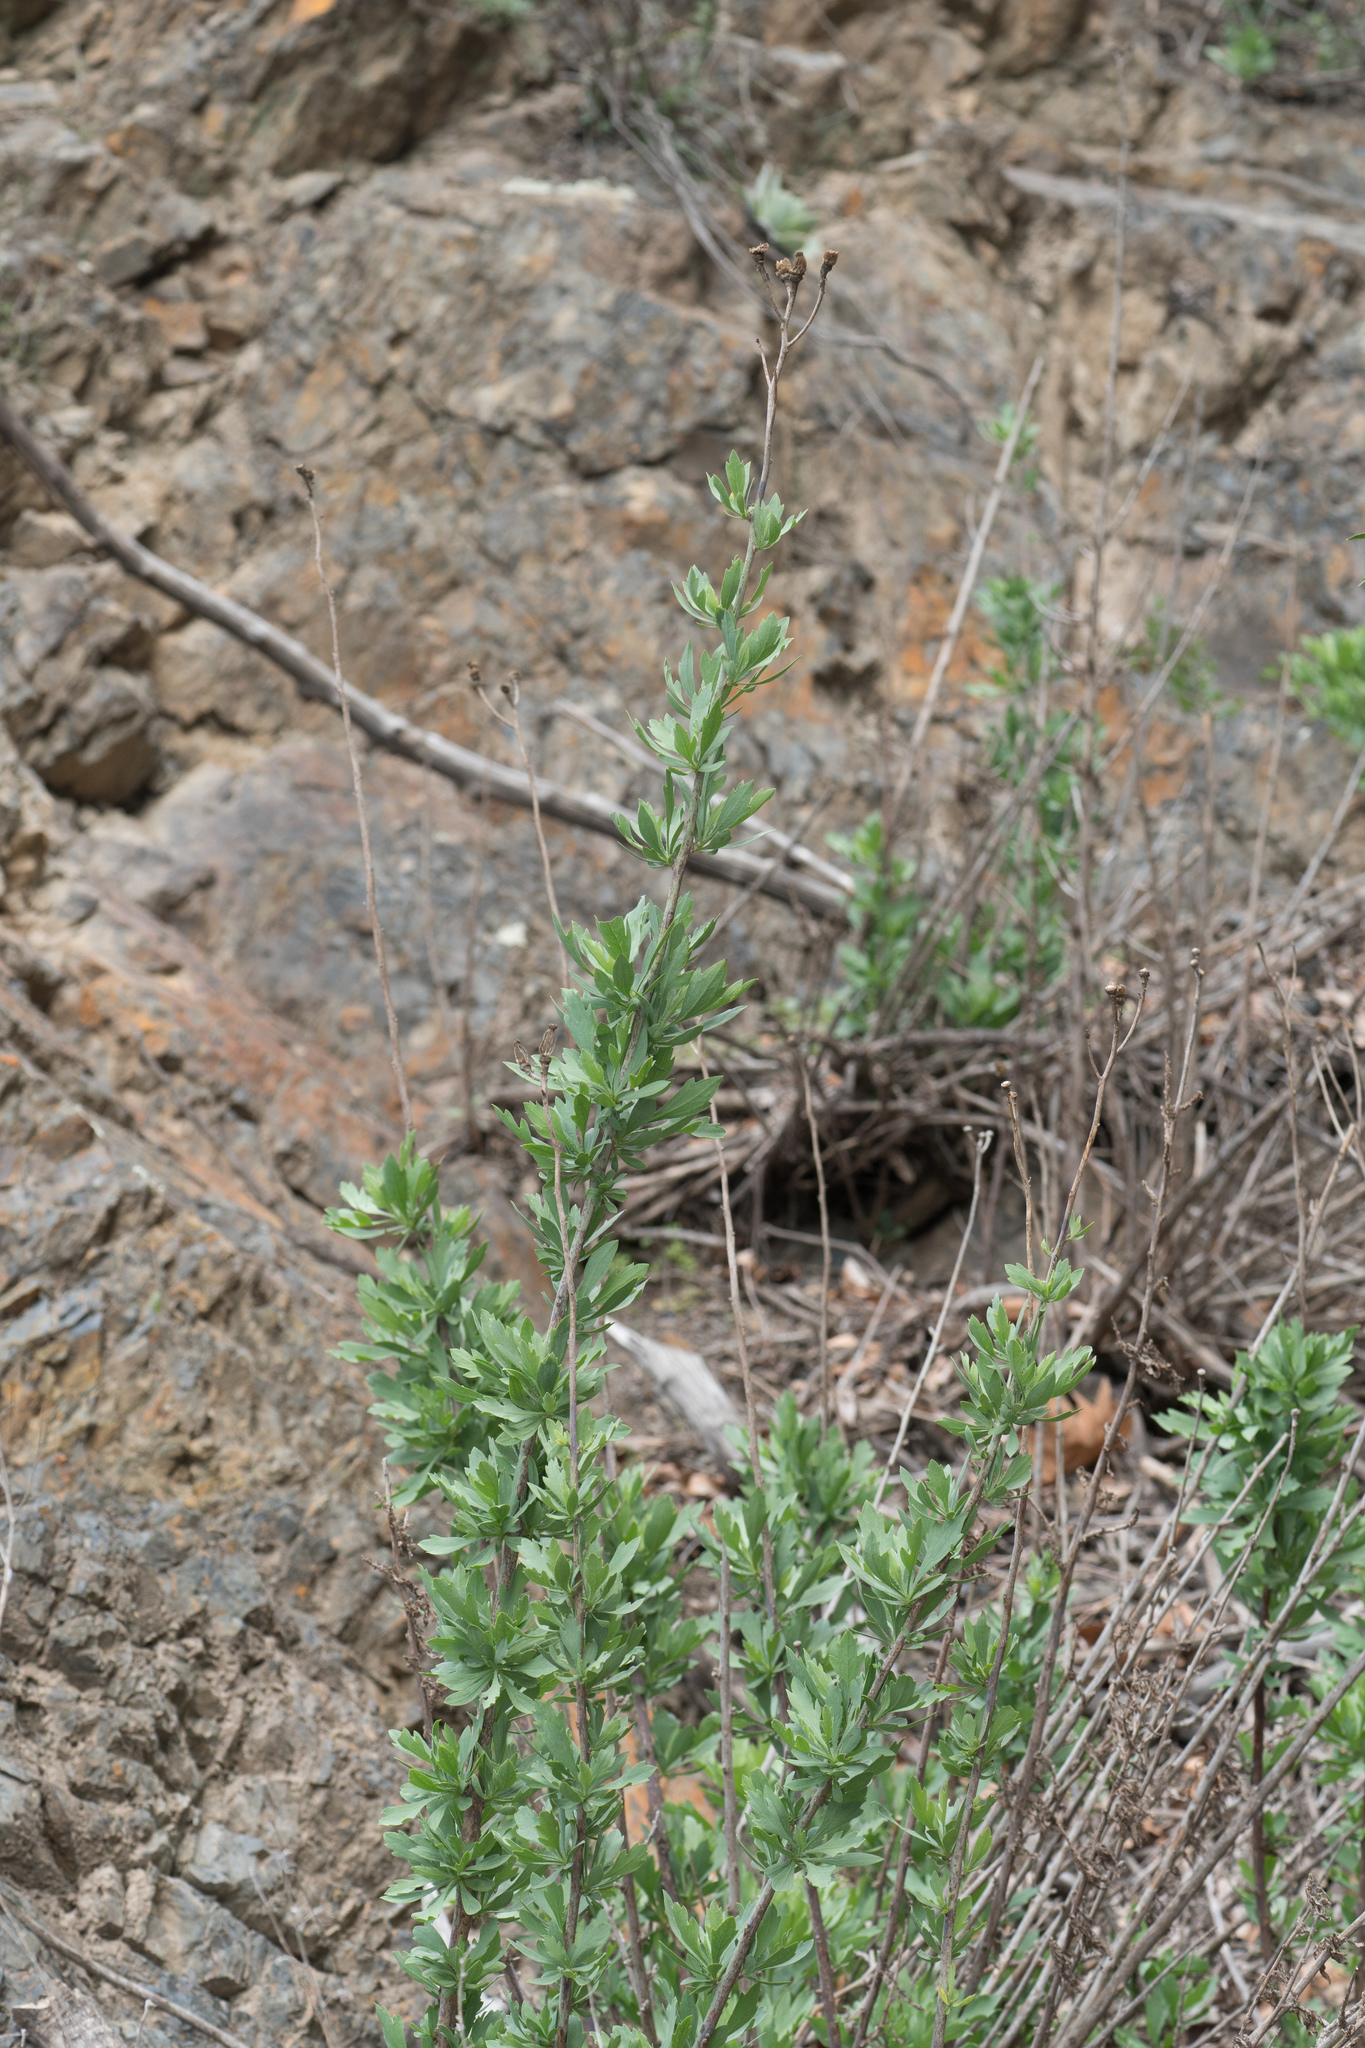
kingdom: Plantae
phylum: Tracheophyta
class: Magnoliopsida
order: Ranunculales
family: Papaveraceae
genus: Romneya
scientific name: Romneya coulteri
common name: California tree-poppy
